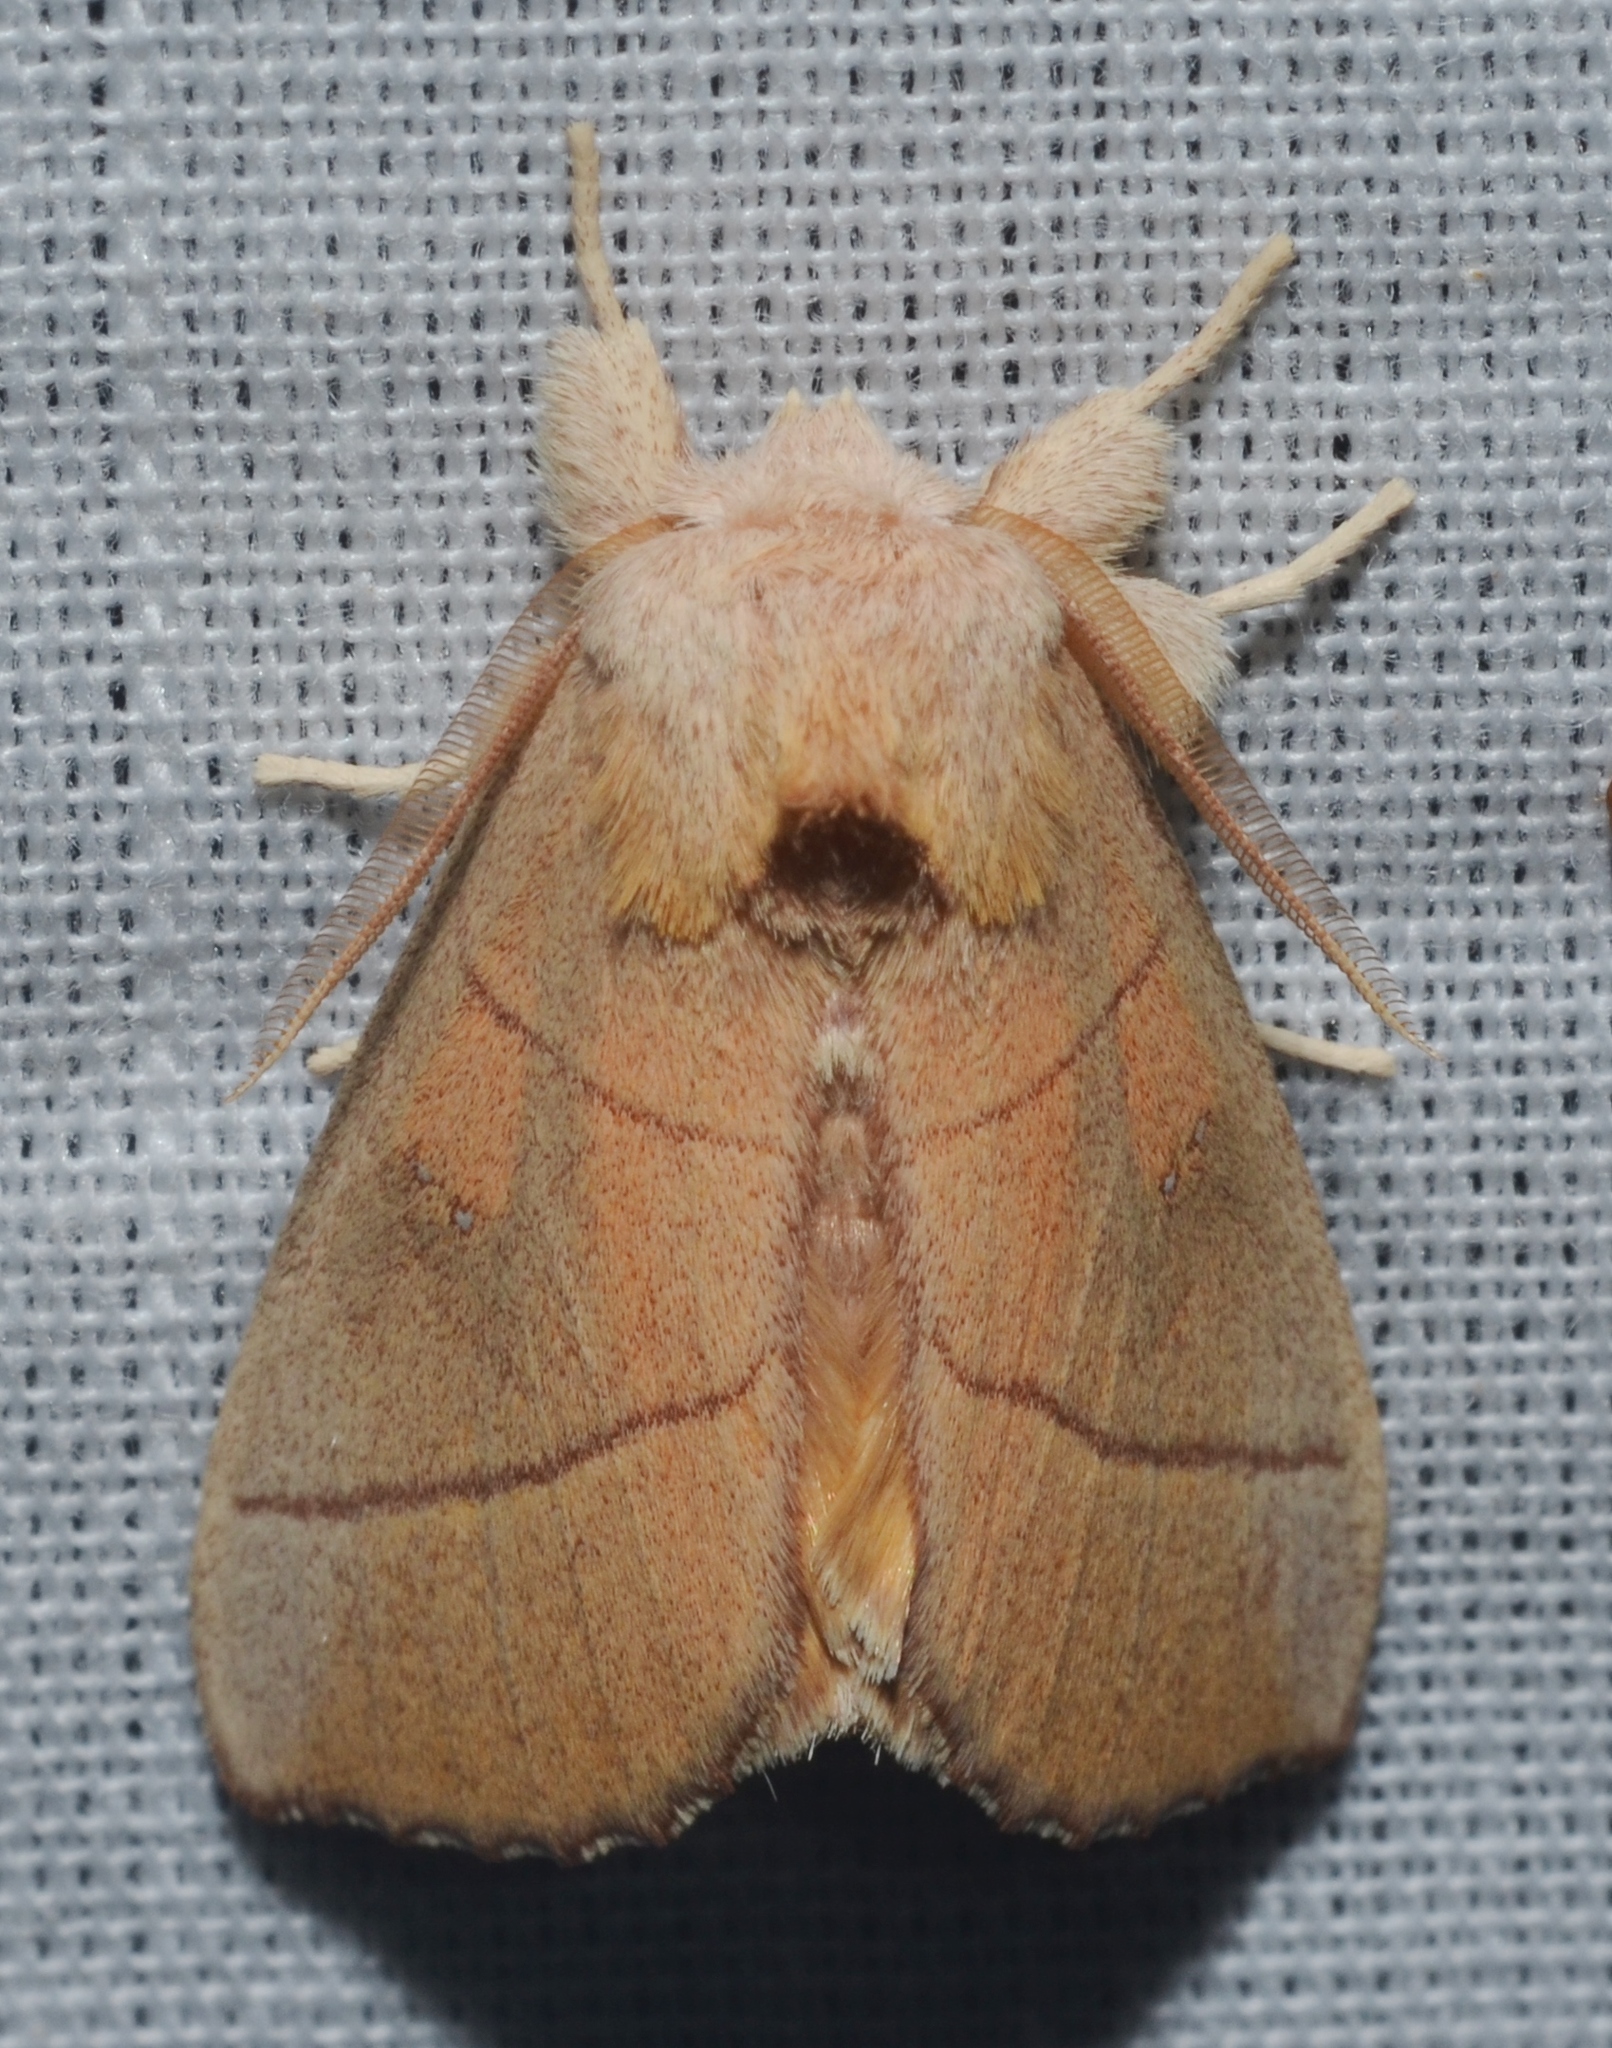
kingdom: Animalia
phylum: Arthropoda
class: Insecta
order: Lepidoptera
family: Notodontidae
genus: Nadata
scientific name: Nadata gibbosa
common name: White-dotted prominent
